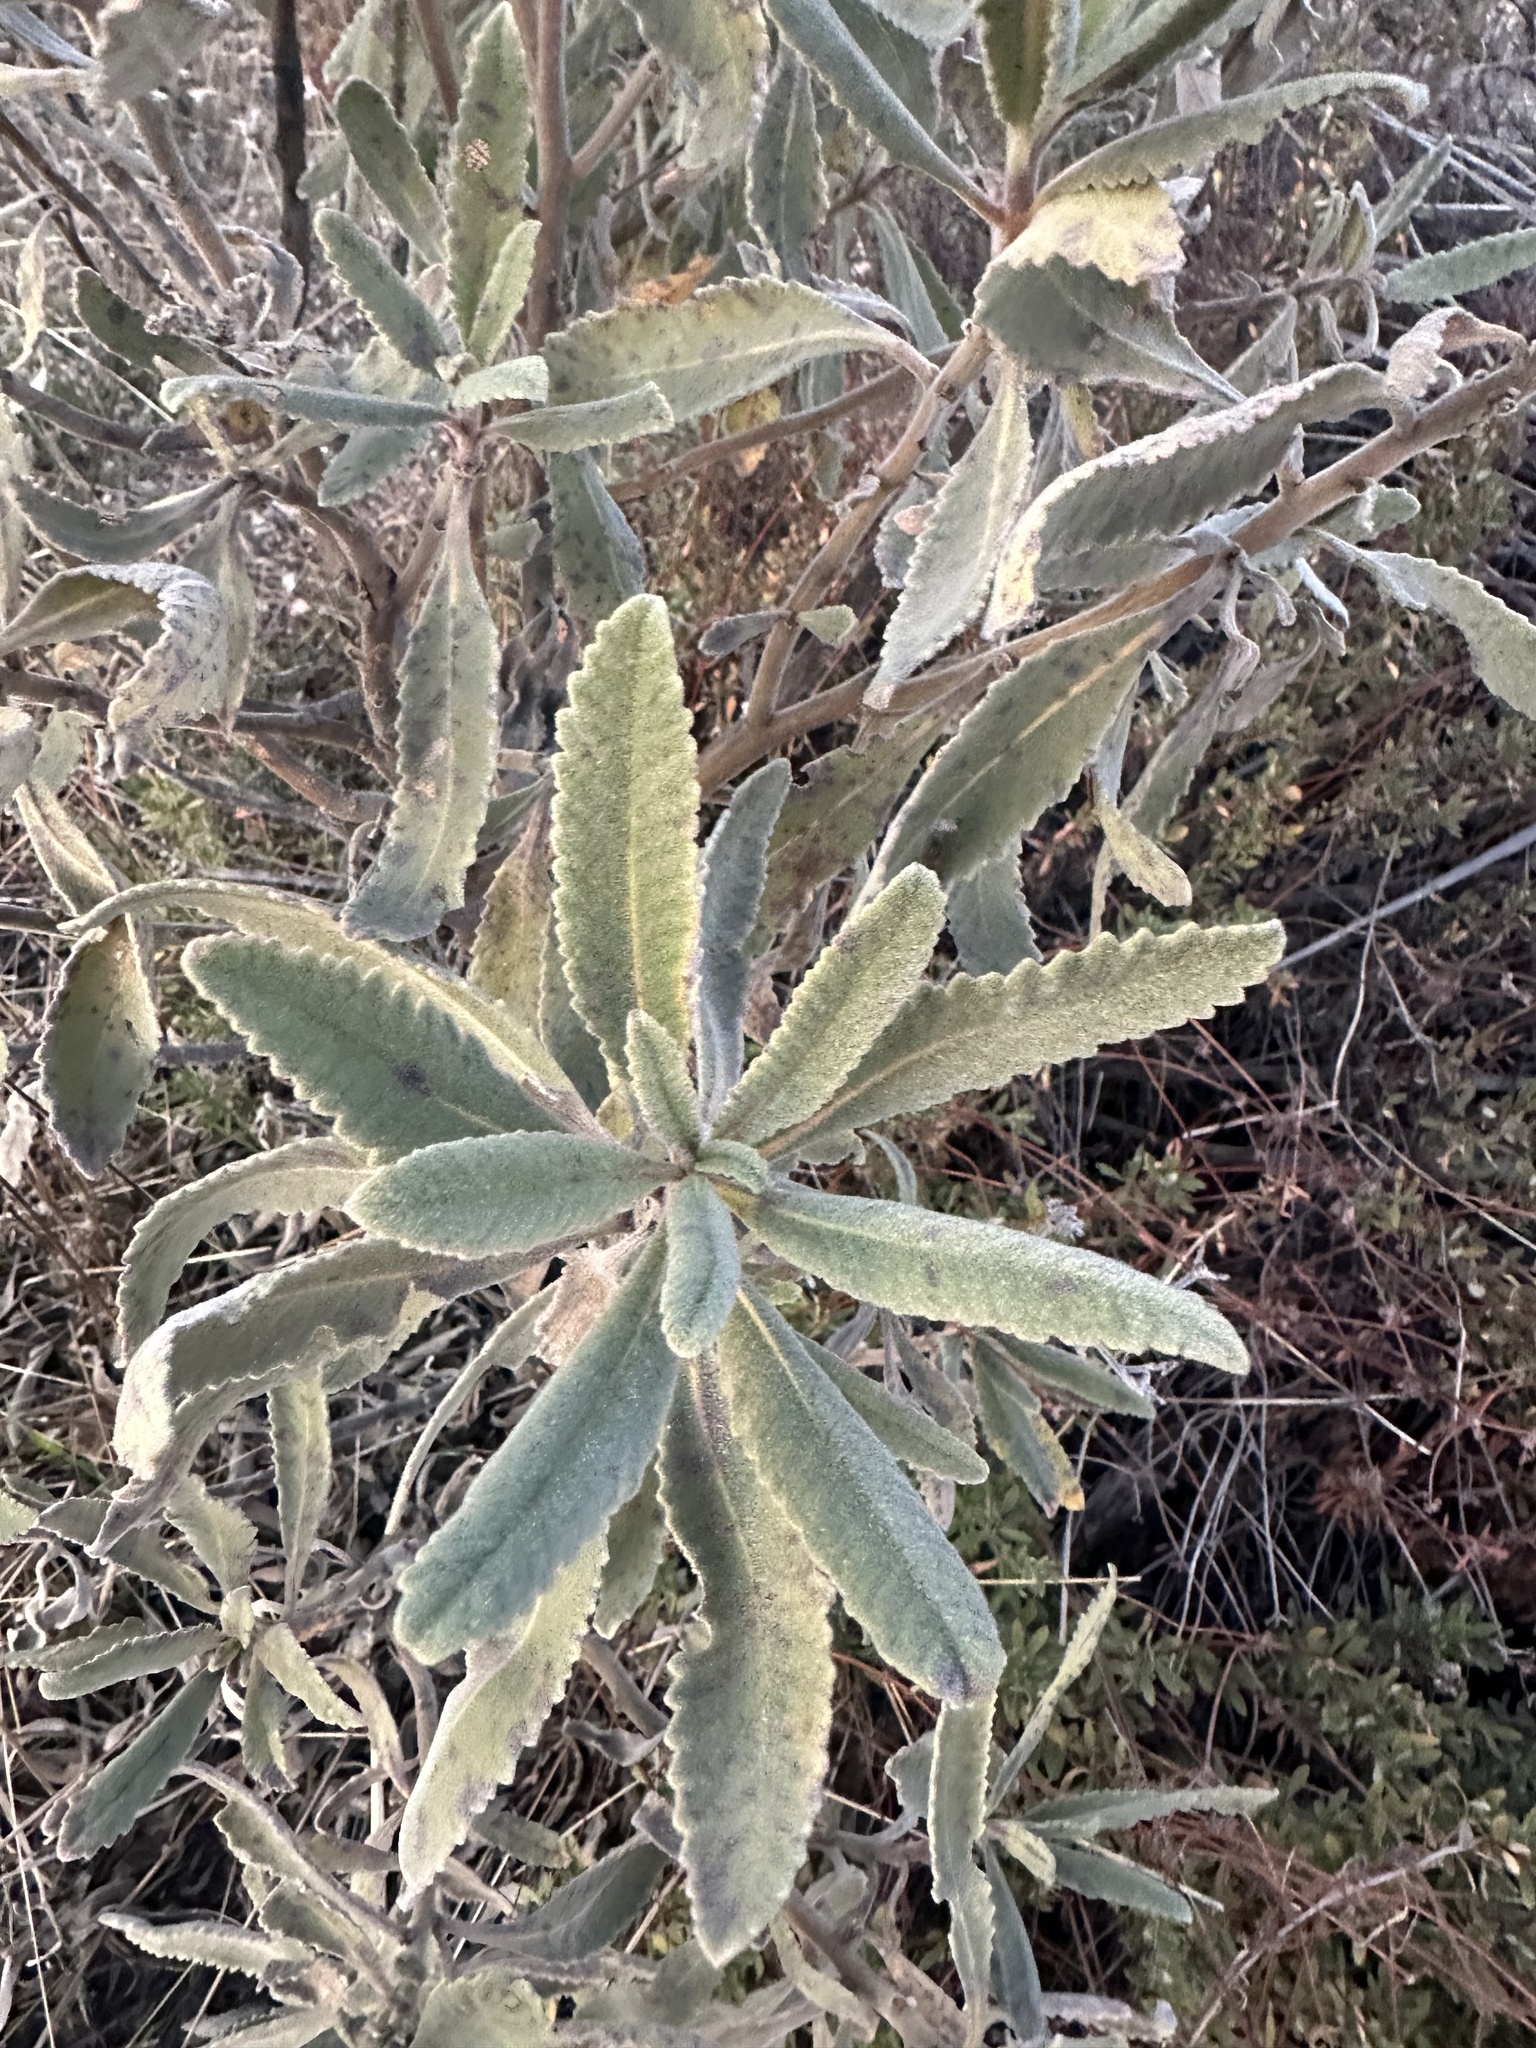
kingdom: Plantae
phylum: Tracheophyta
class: Magnoliopsida
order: Boraginales
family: Namaceae
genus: Eriodictyon
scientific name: Eriodictyon crassifolium
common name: Thick-leaf yerba-santa
